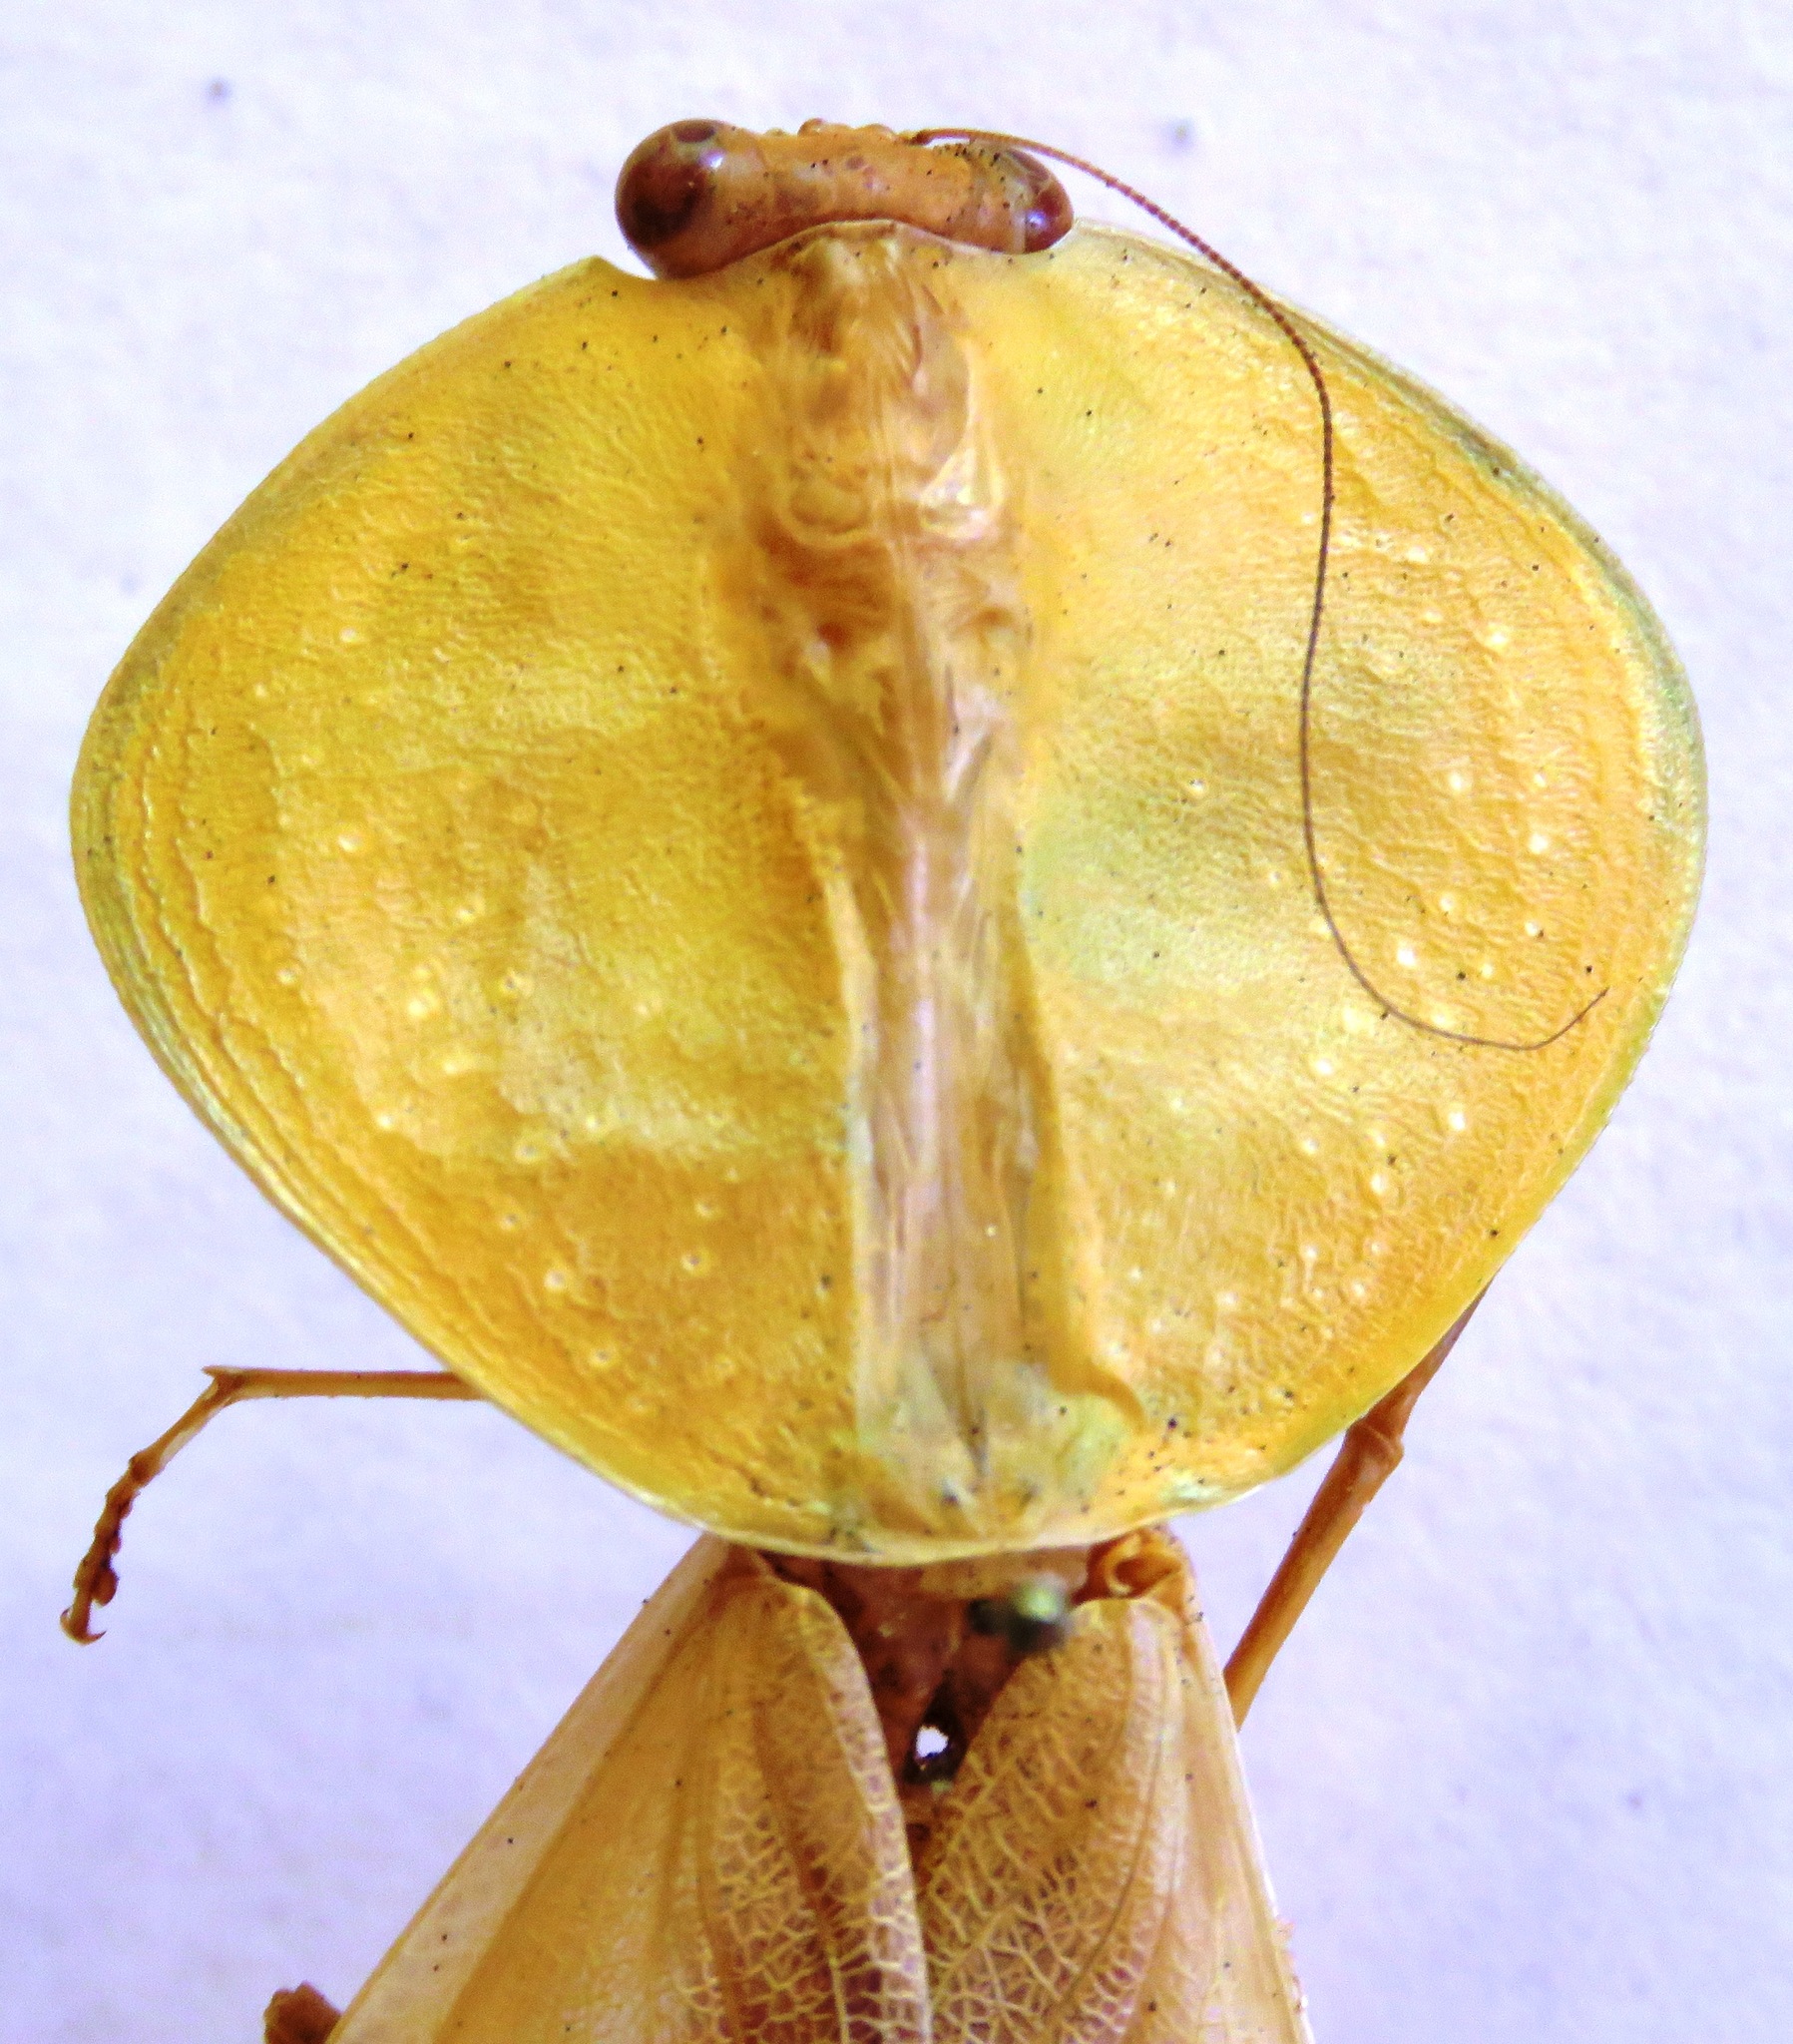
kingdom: Animalia
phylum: Arthropoda
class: Insecta
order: Mantodea
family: Mantidae
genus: Choeradodis
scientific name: Choeradodis rhombicollis
